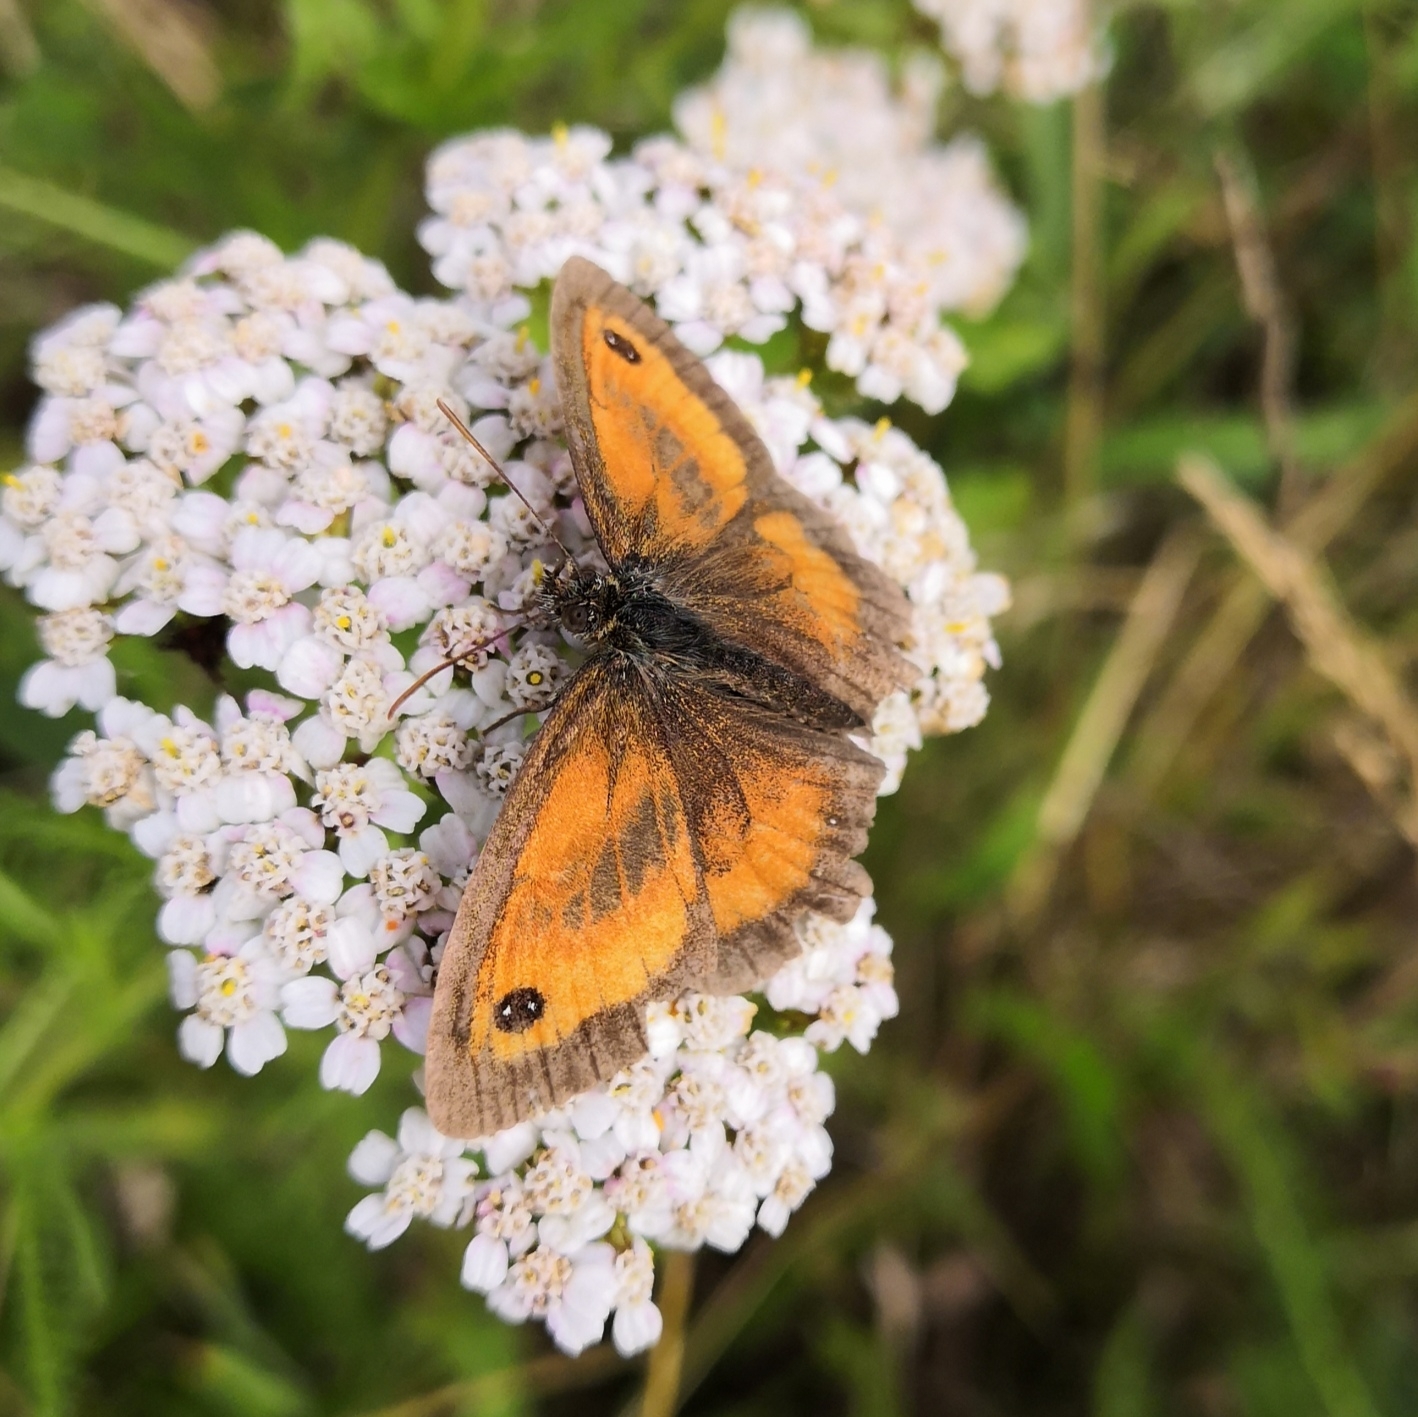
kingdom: Animalia
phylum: Arthropoda
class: Insecta
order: Lepidoptera
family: Nymphalidae
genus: Pyronia
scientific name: Pyronia tithonus
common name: Gatekeeper
